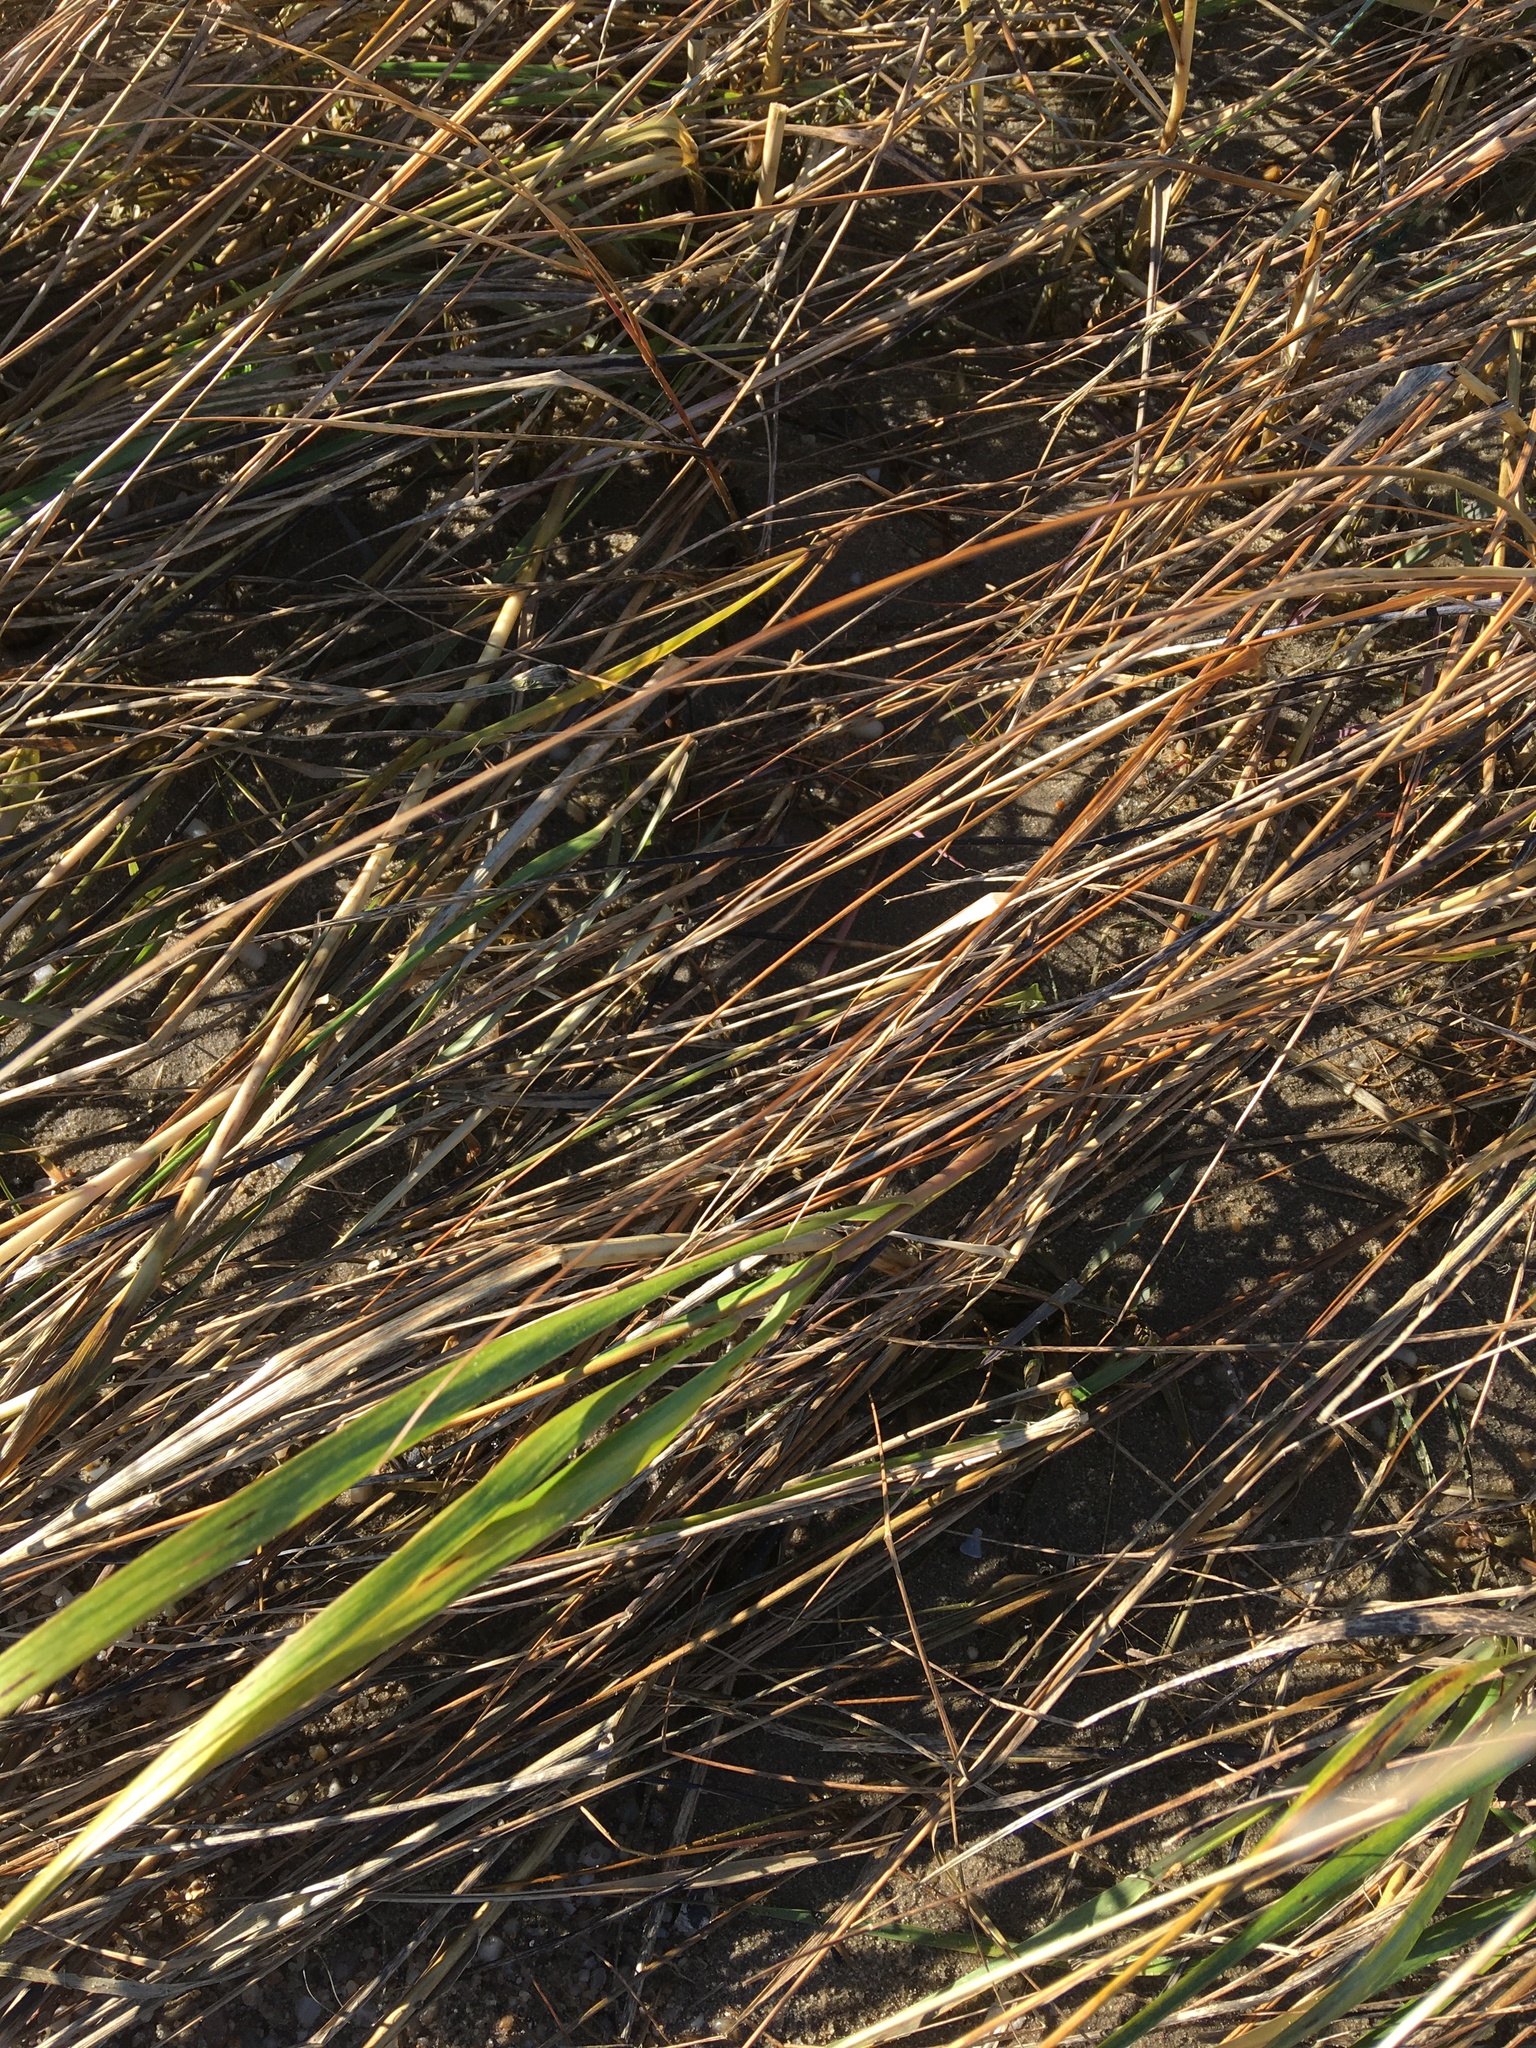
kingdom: Plantae
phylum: Tracheophyta
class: Liliopsida
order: Poales
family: Poaceae
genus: Sporobolus
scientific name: Sporobolus alterniflorus
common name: Atlantic cordgrass
